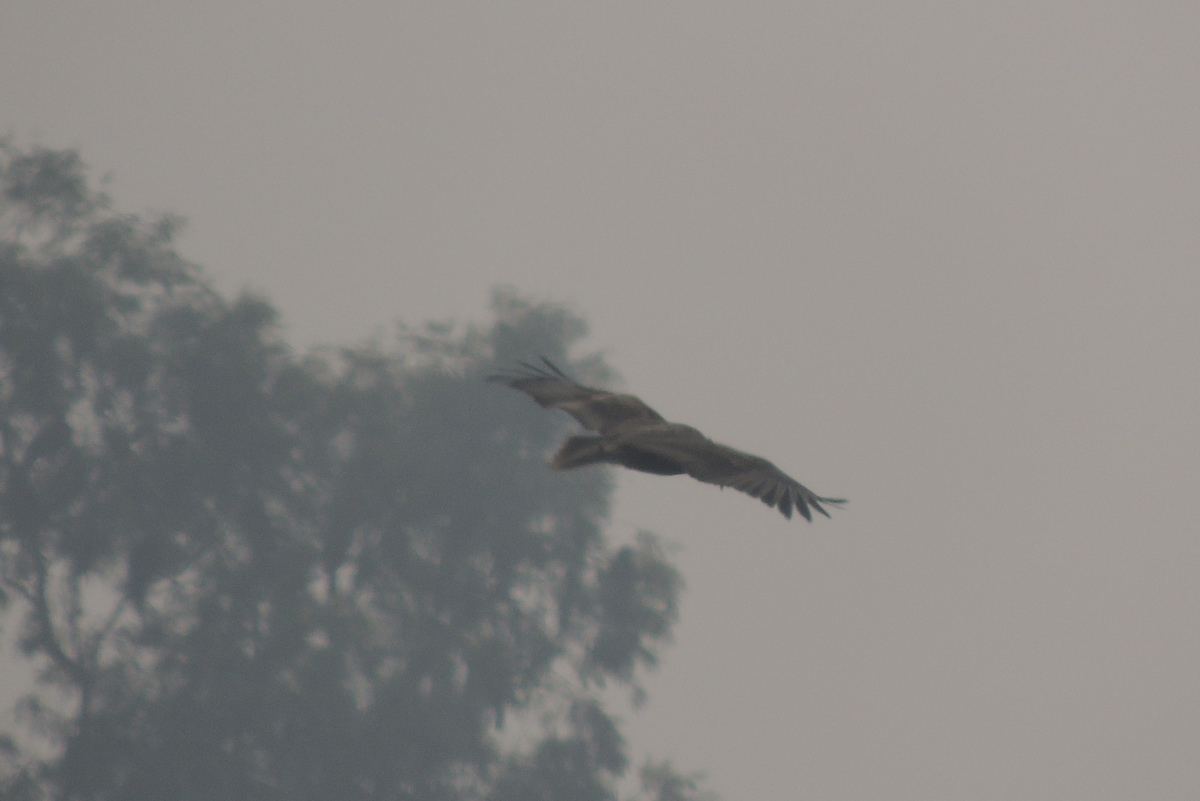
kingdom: Animalia
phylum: Chordata
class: Aves
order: Accipitriformes
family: Accipitridae
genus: Neophron
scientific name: Neophron percnopterus
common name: Egyptian vulture
